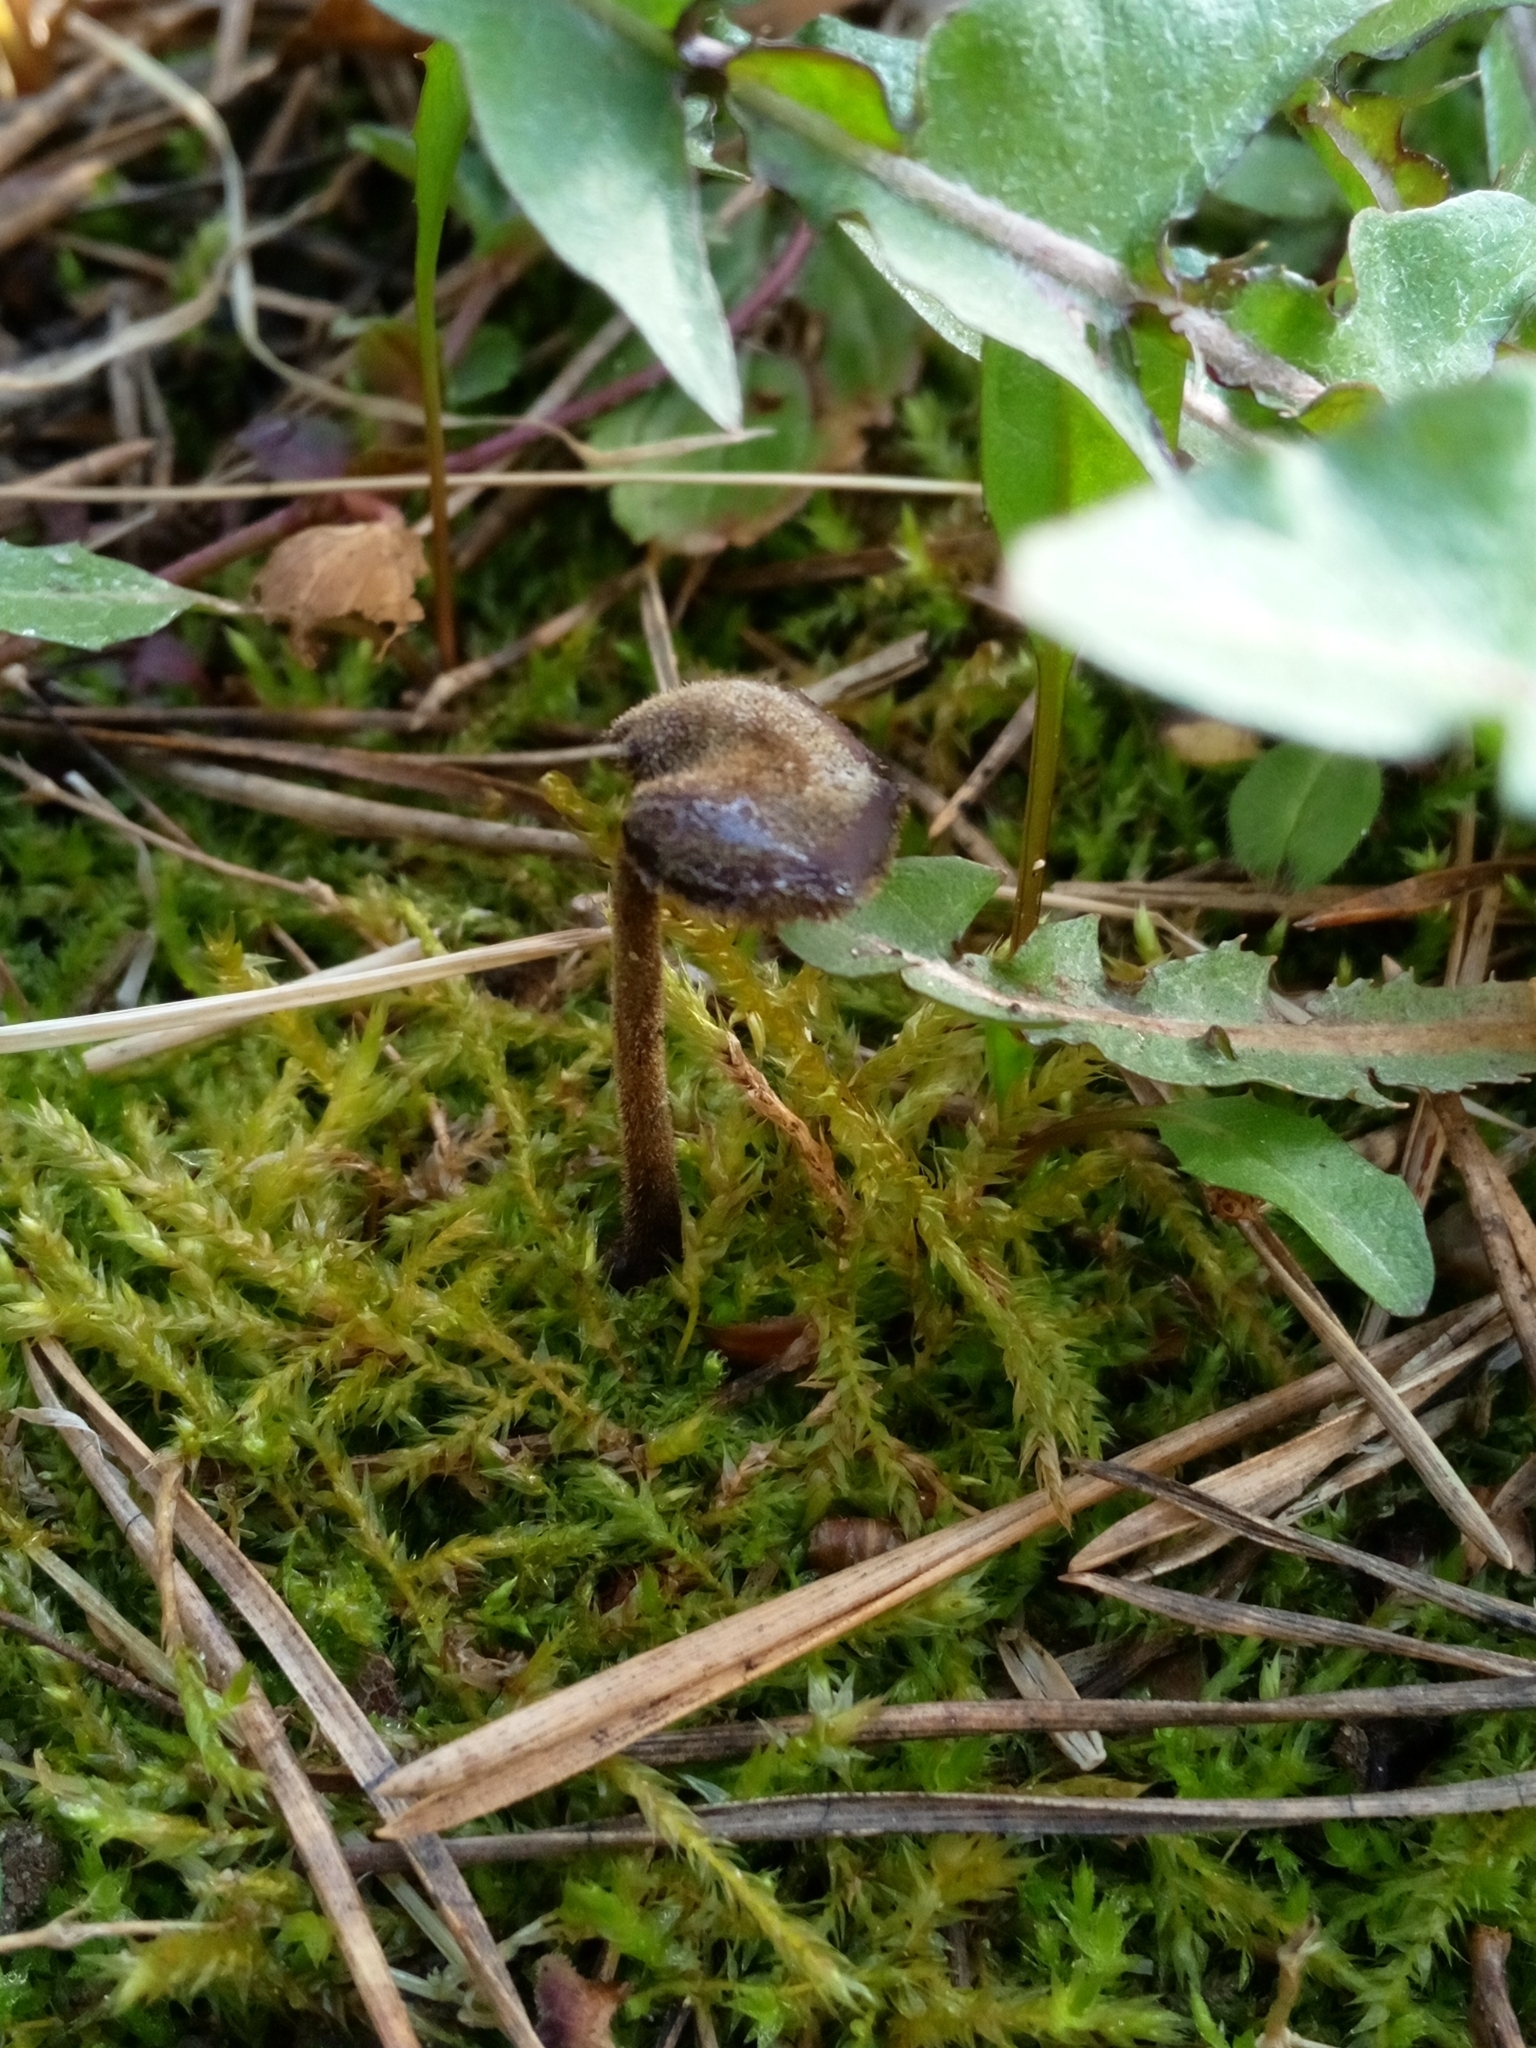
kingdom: Fungi
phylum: Basidiomycota
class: Agaricomycetes
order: Russulales
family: Auriscalpiaceae
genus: Auriscalpium
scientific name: Auriscalpium vulgare
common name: Earpick fungus
